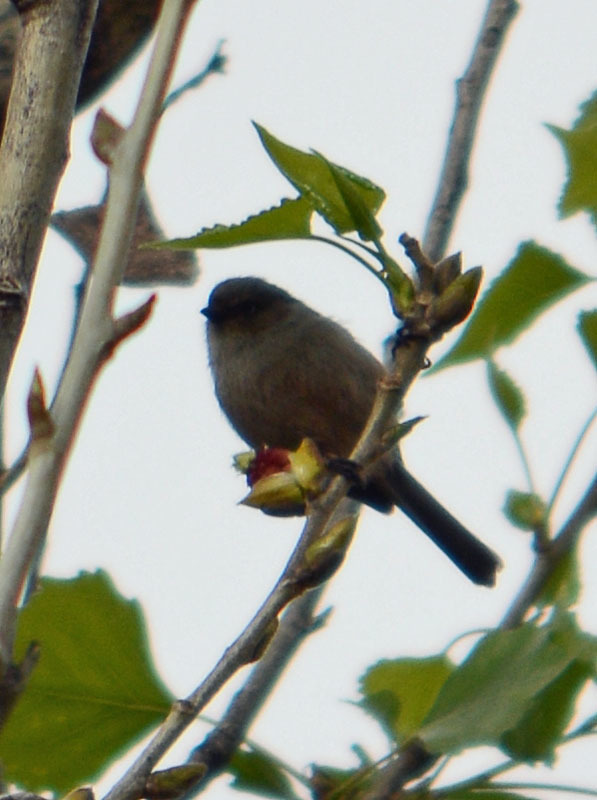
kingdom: Animalia
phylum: Chordata
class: Aves
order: Passeriformes
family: Aegithalidae
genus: Psaltriparus
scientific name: Psaltriparus minimus
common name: American bushtit
